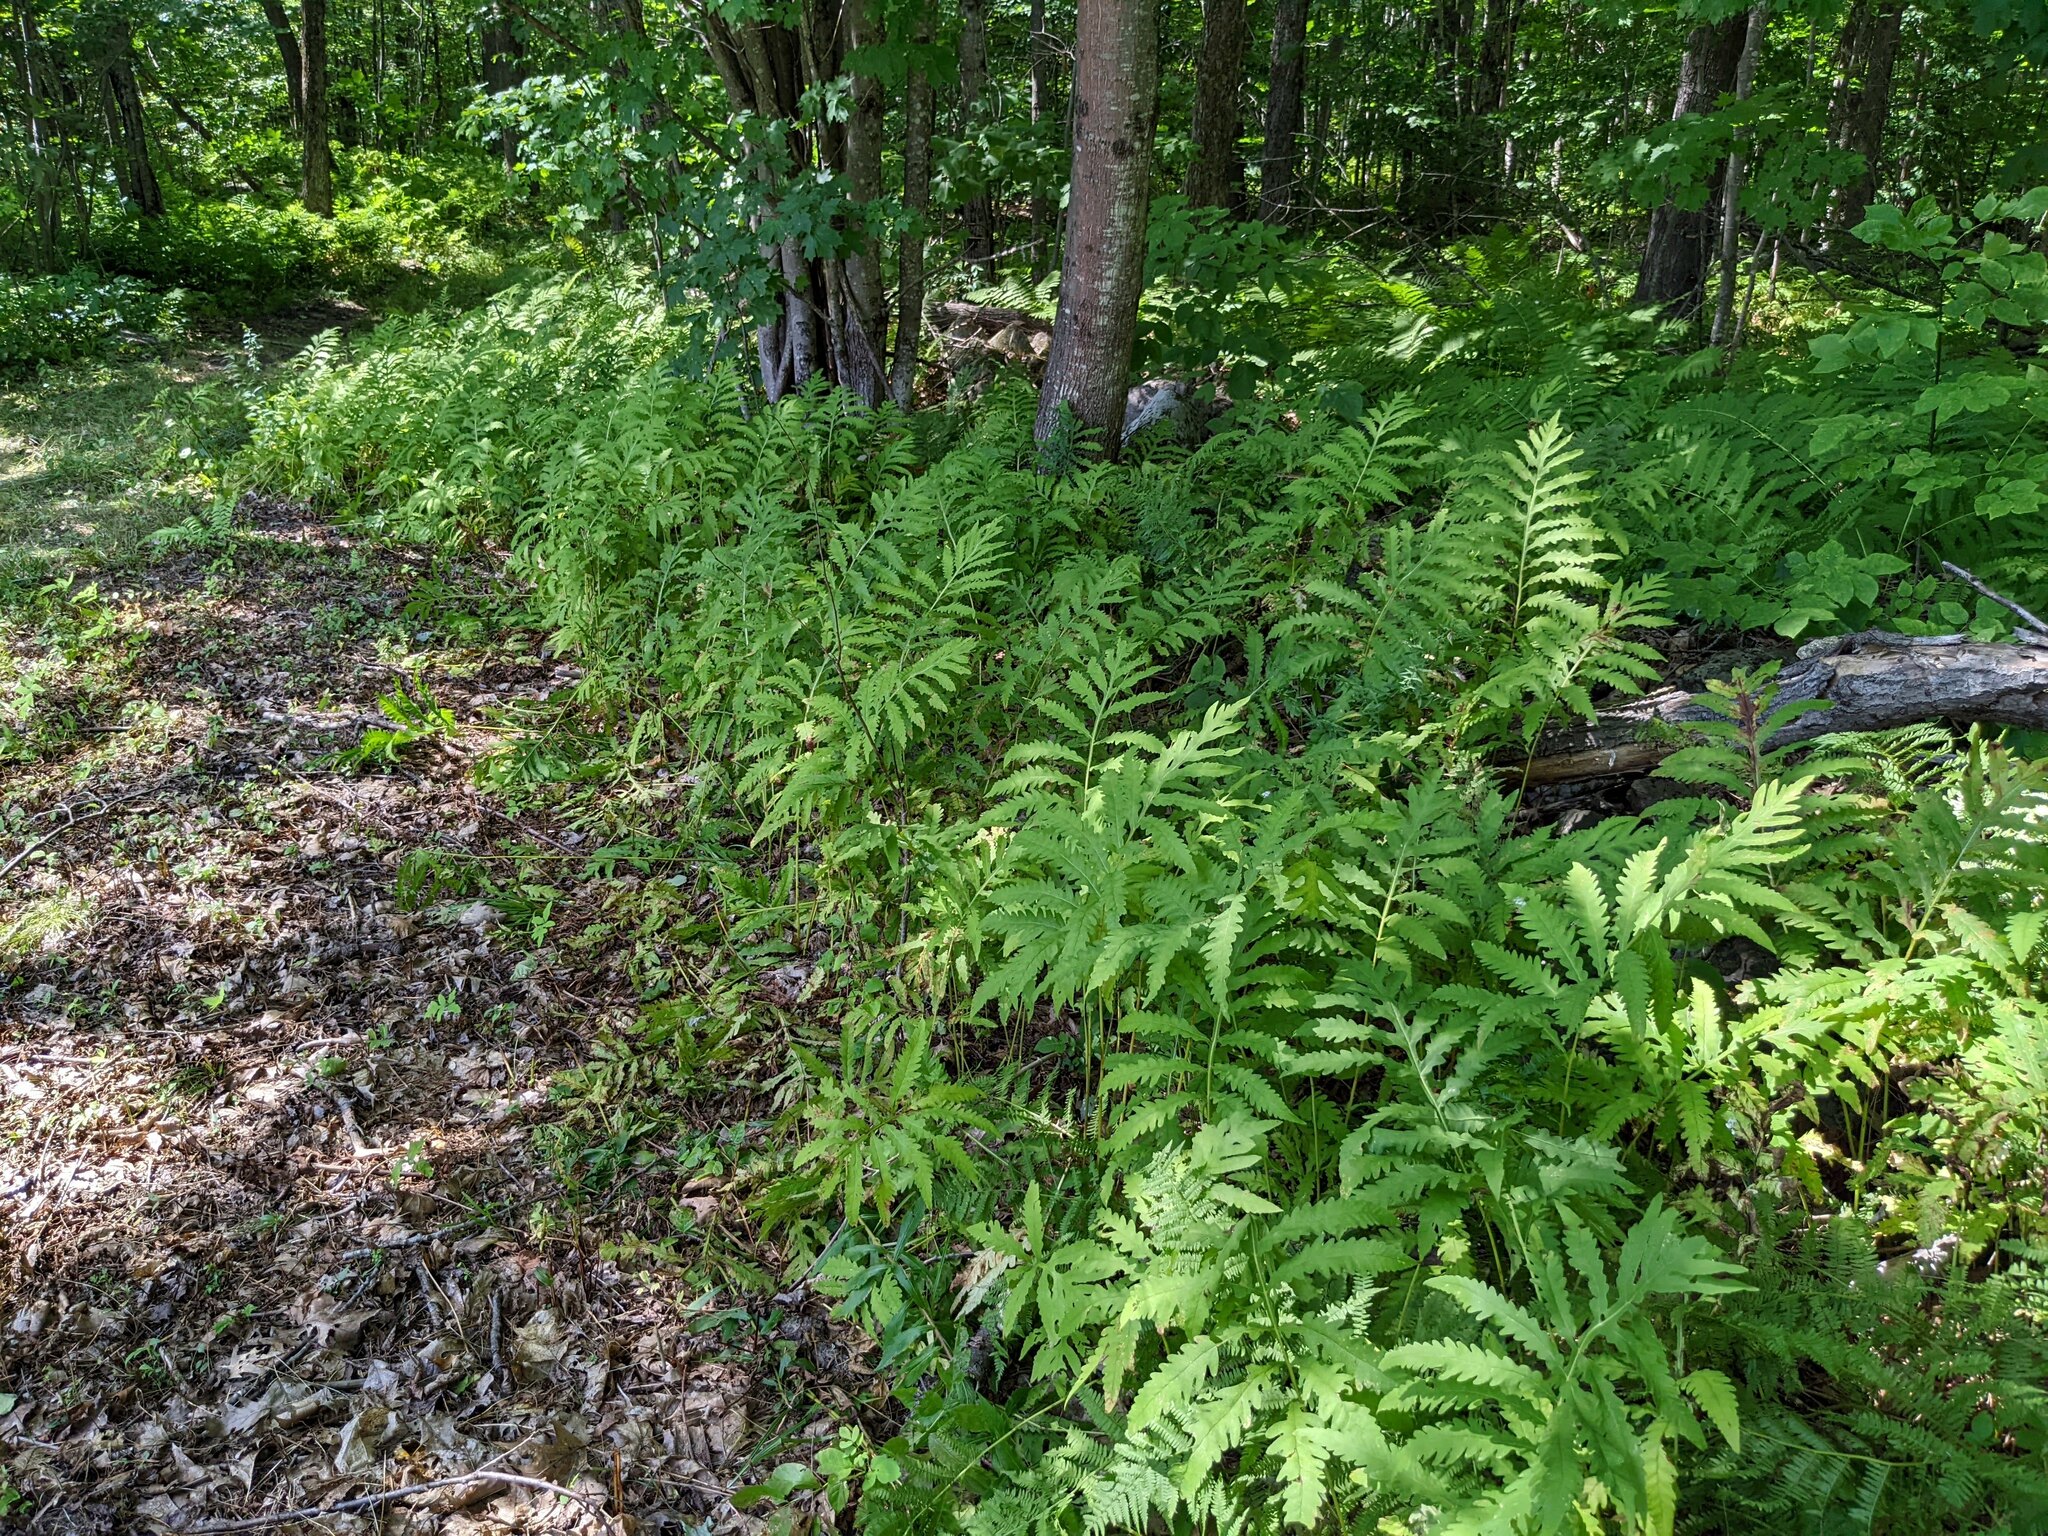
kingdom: Plantae
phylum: Tracheophyta
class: Polypodiopsida
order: Polypodiales
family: Onocleaceae
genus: Onoclea
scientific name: Onoclea sensibilis
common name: Sensitive fern
